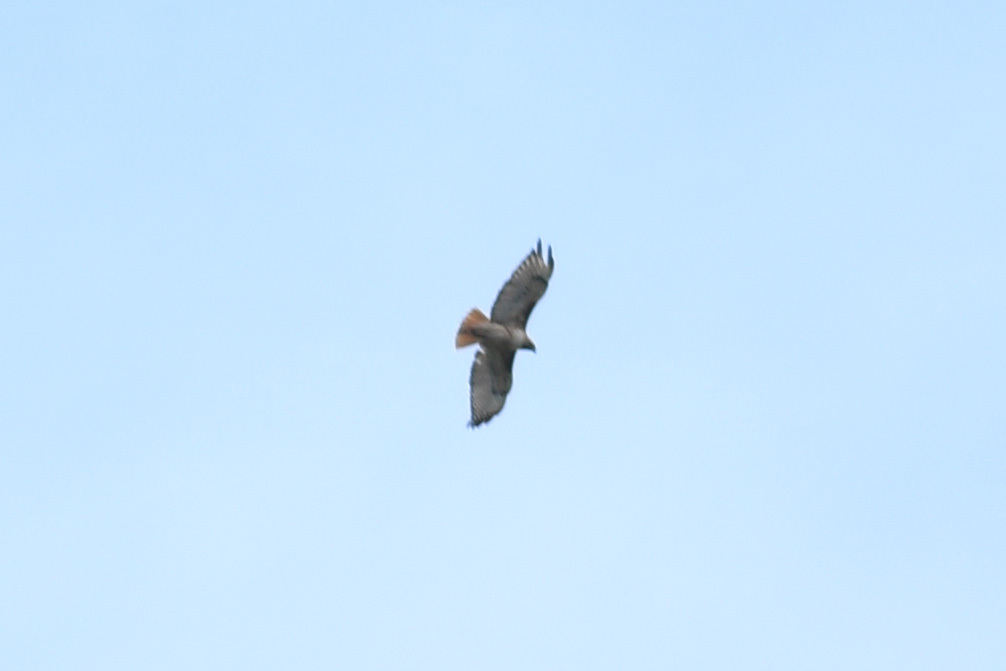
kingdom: Animalia
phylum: Chordata
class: Aves
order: Accipitriformes
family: Accipitridae
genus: Buteo
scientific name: Buteo jamaicensis
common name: Red-tailed hawk
